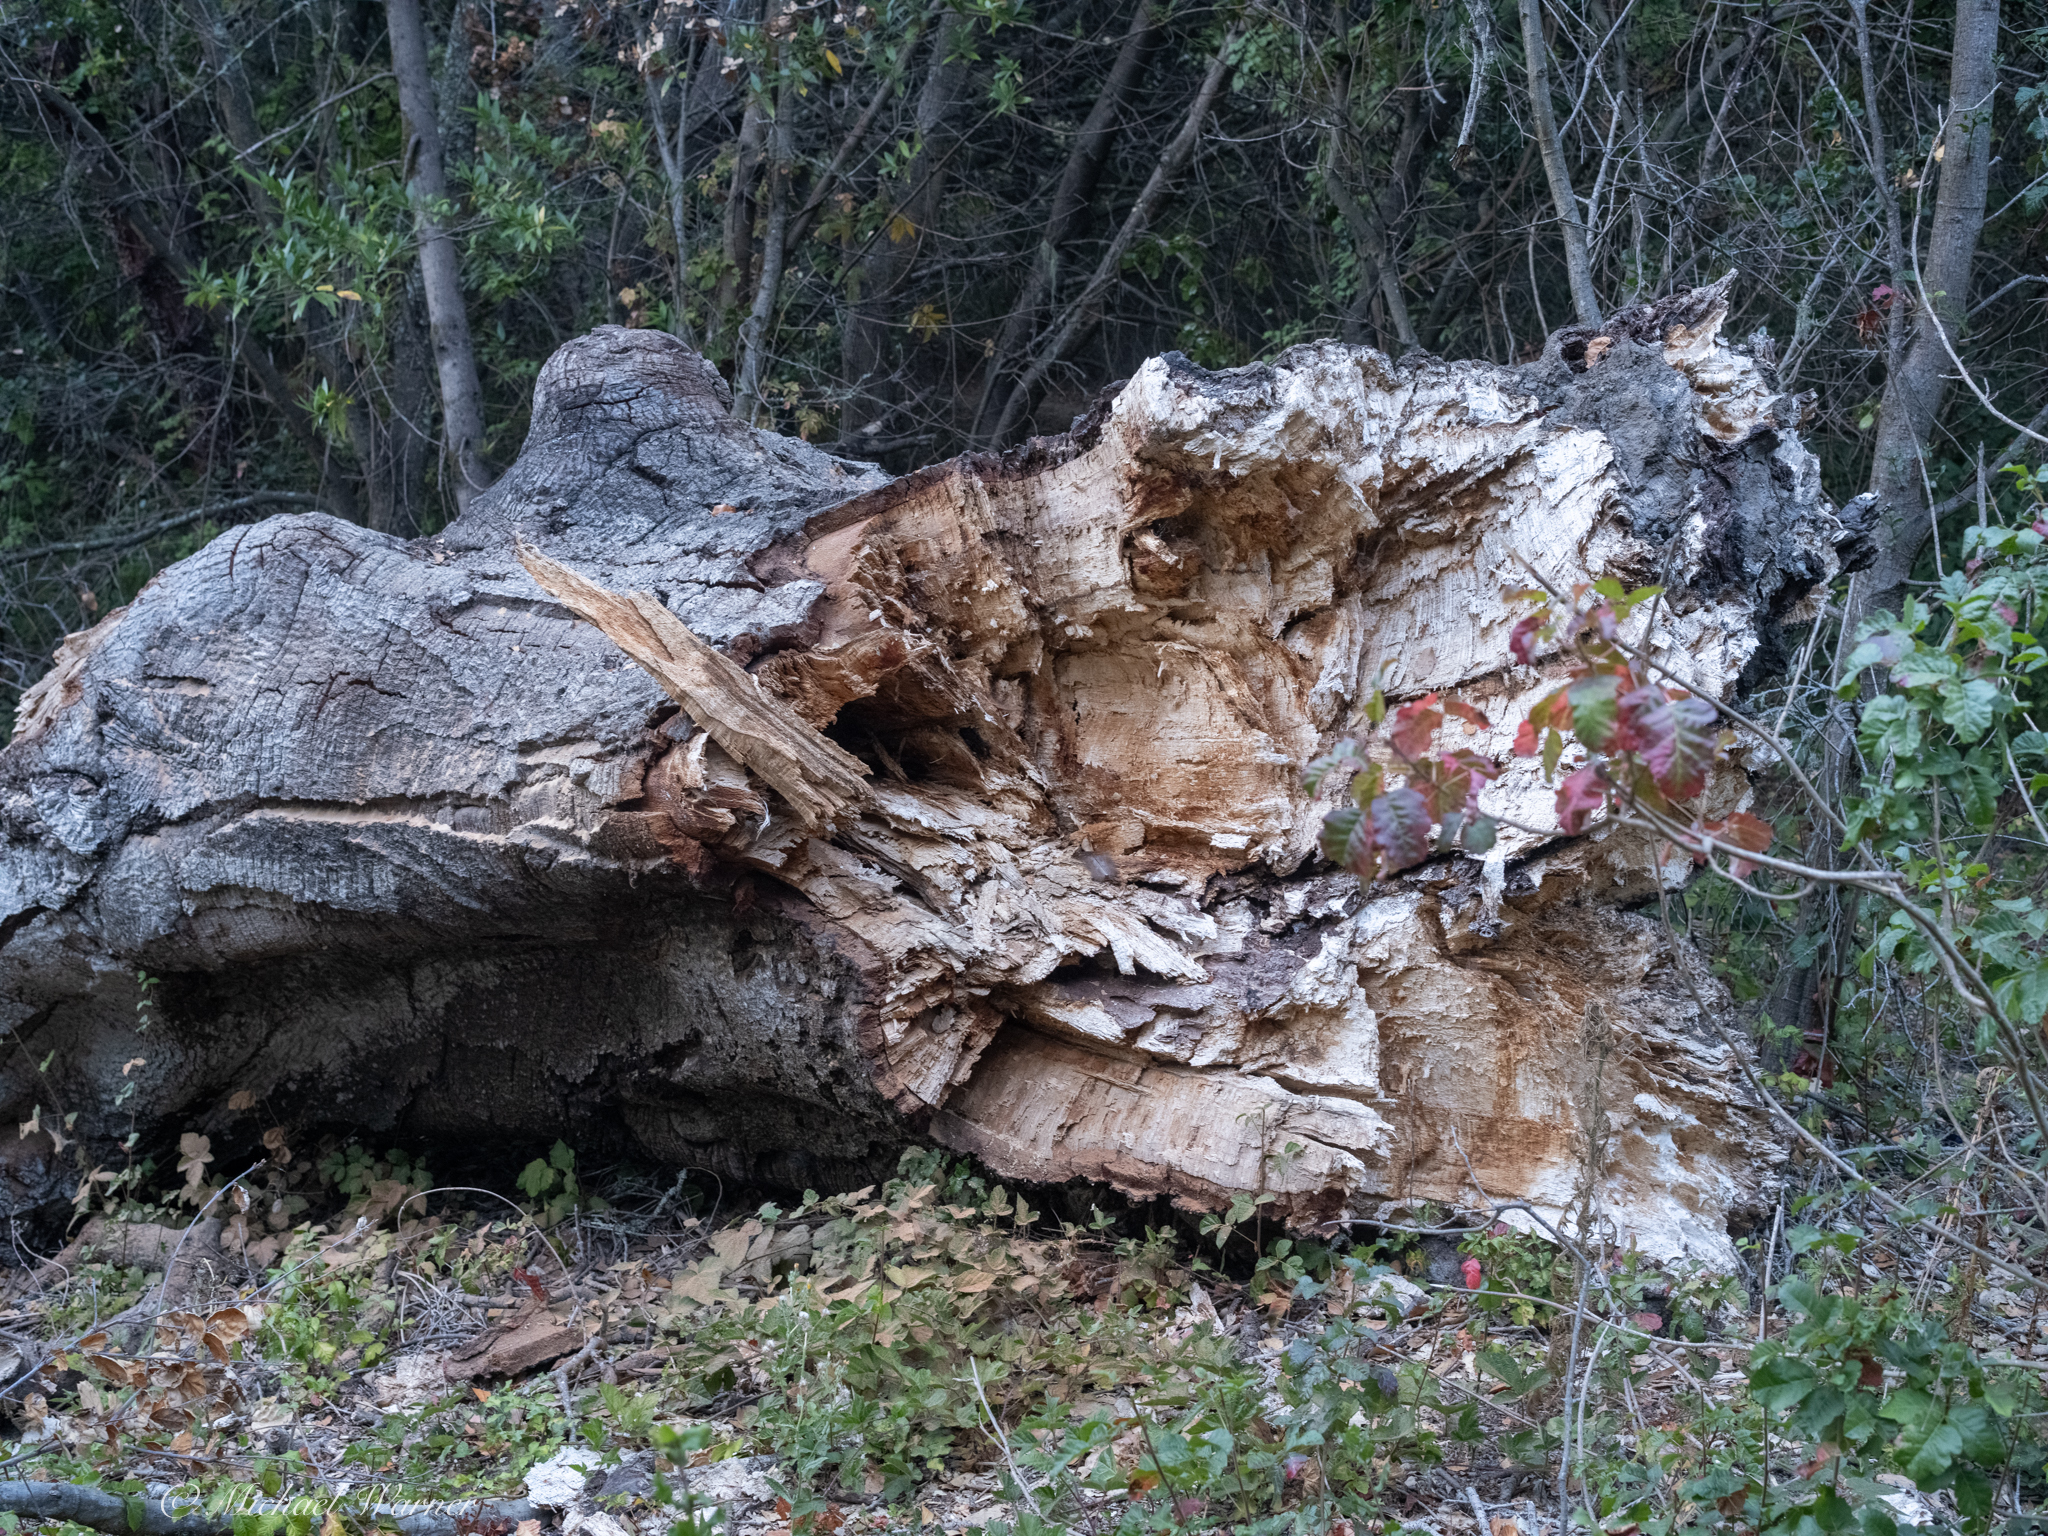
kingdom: Plantae
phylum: Tracheophyta
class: Magnoliopsida
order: Fagales
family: Fagaceae
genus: Quercus
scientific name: Quercus agrifolia
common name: California live oak
